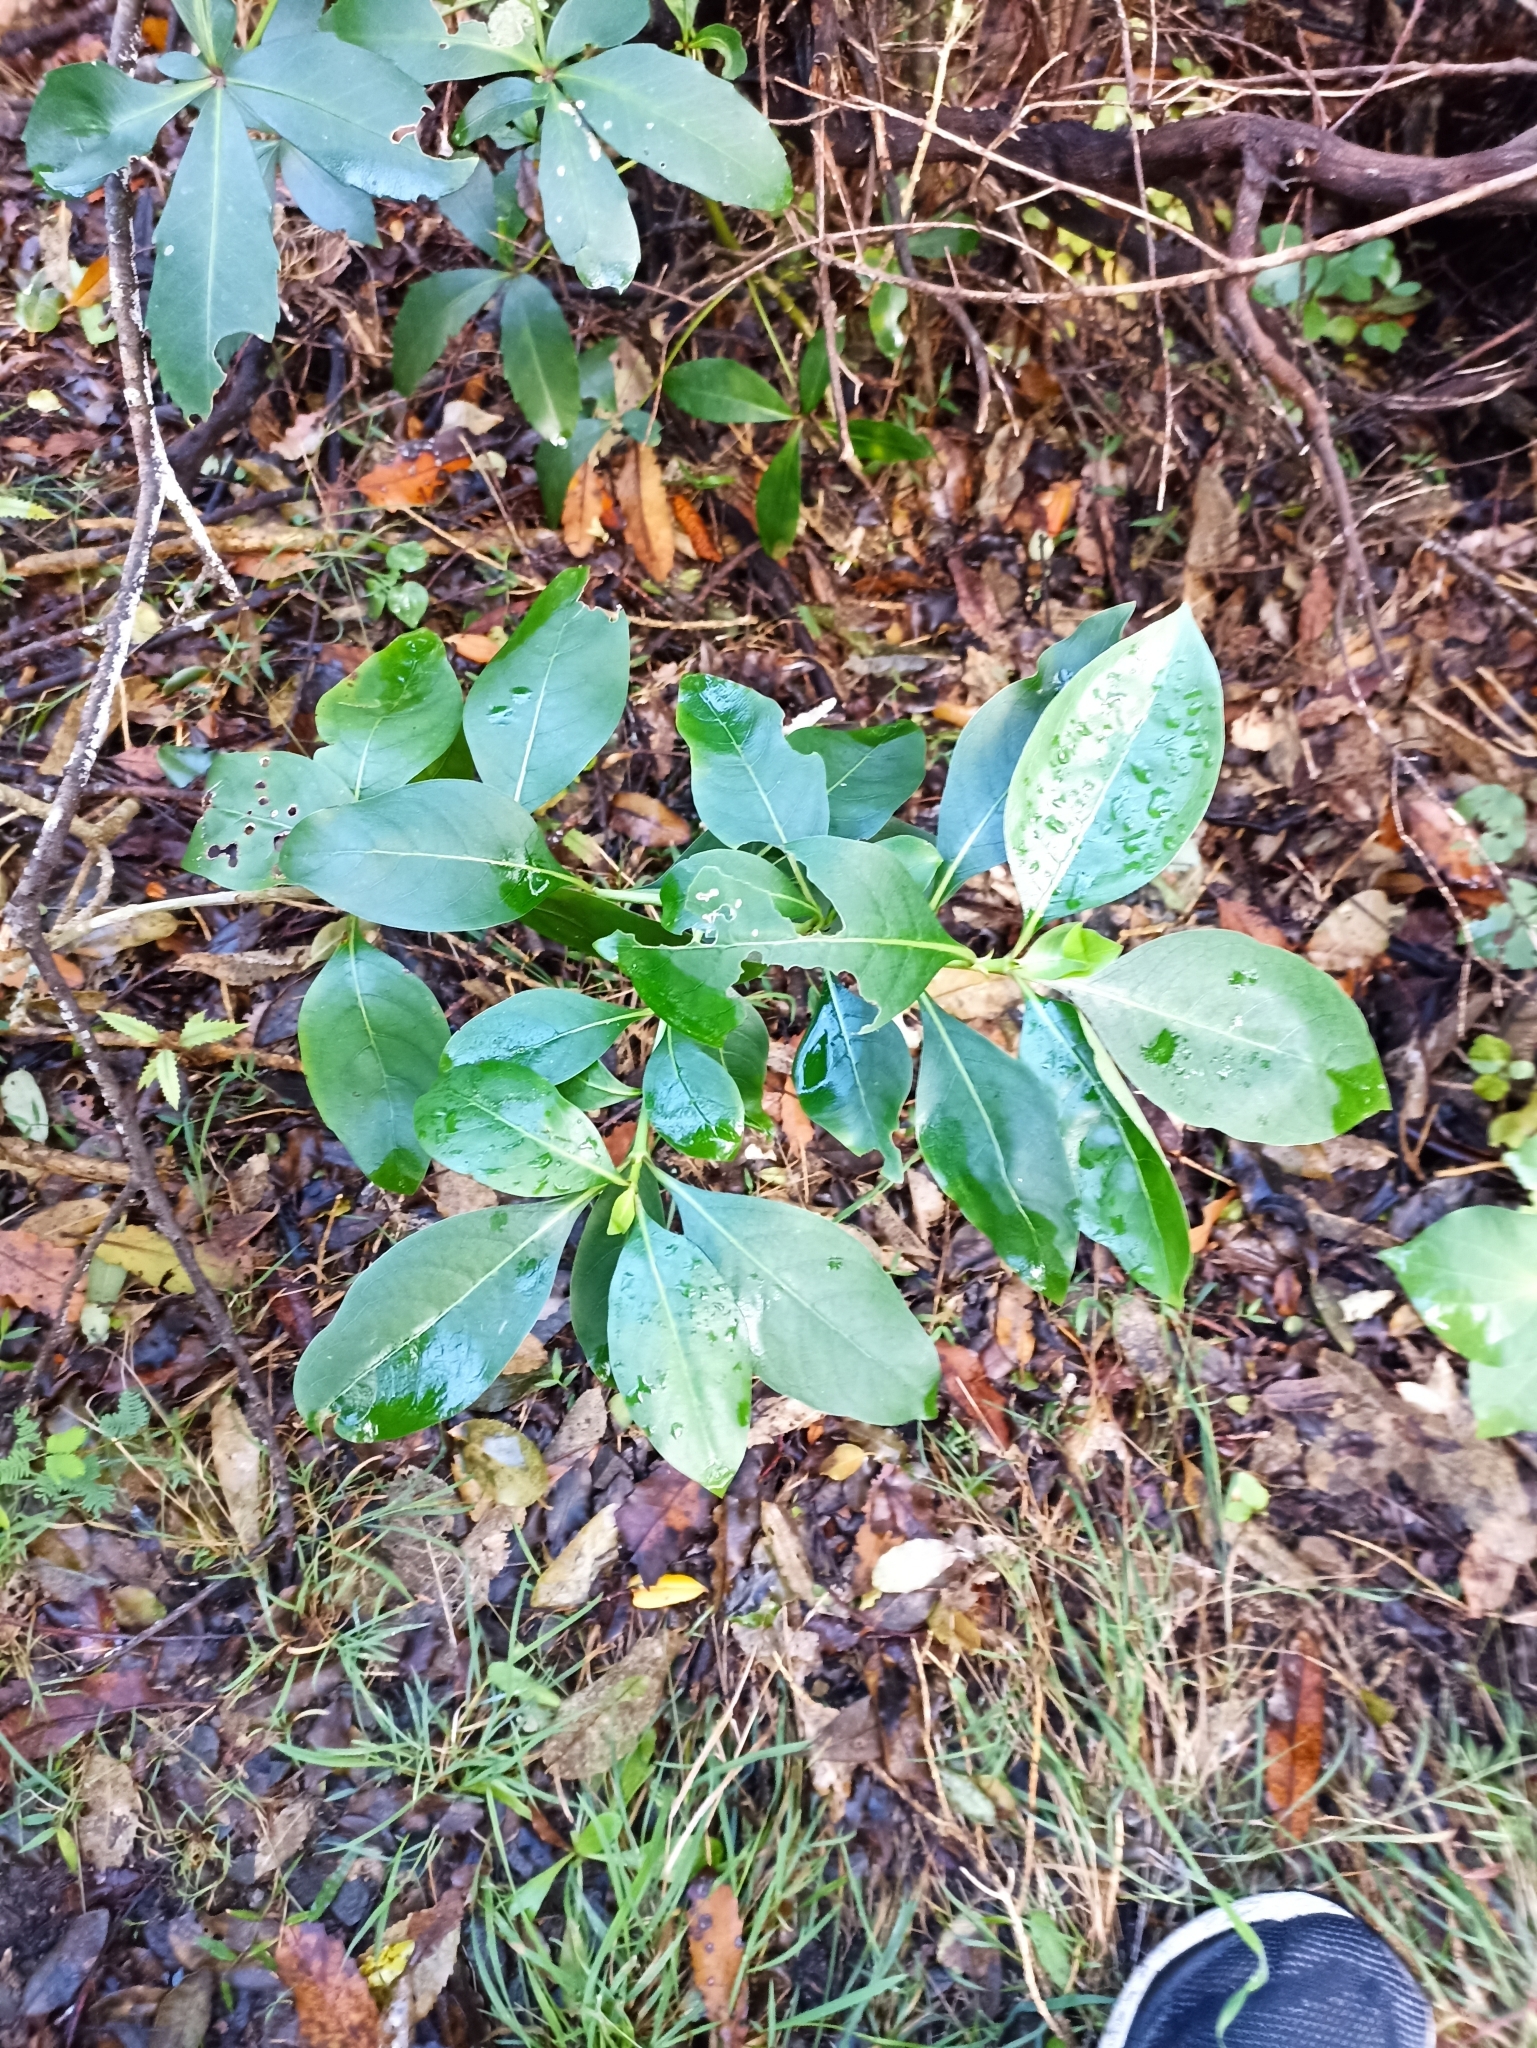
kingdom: Plantae
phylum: Tracheophyta
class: Magnoliopsida
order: Gentianales
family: Rubiaceae
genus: Coprosma
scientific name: Coprosma lucida
